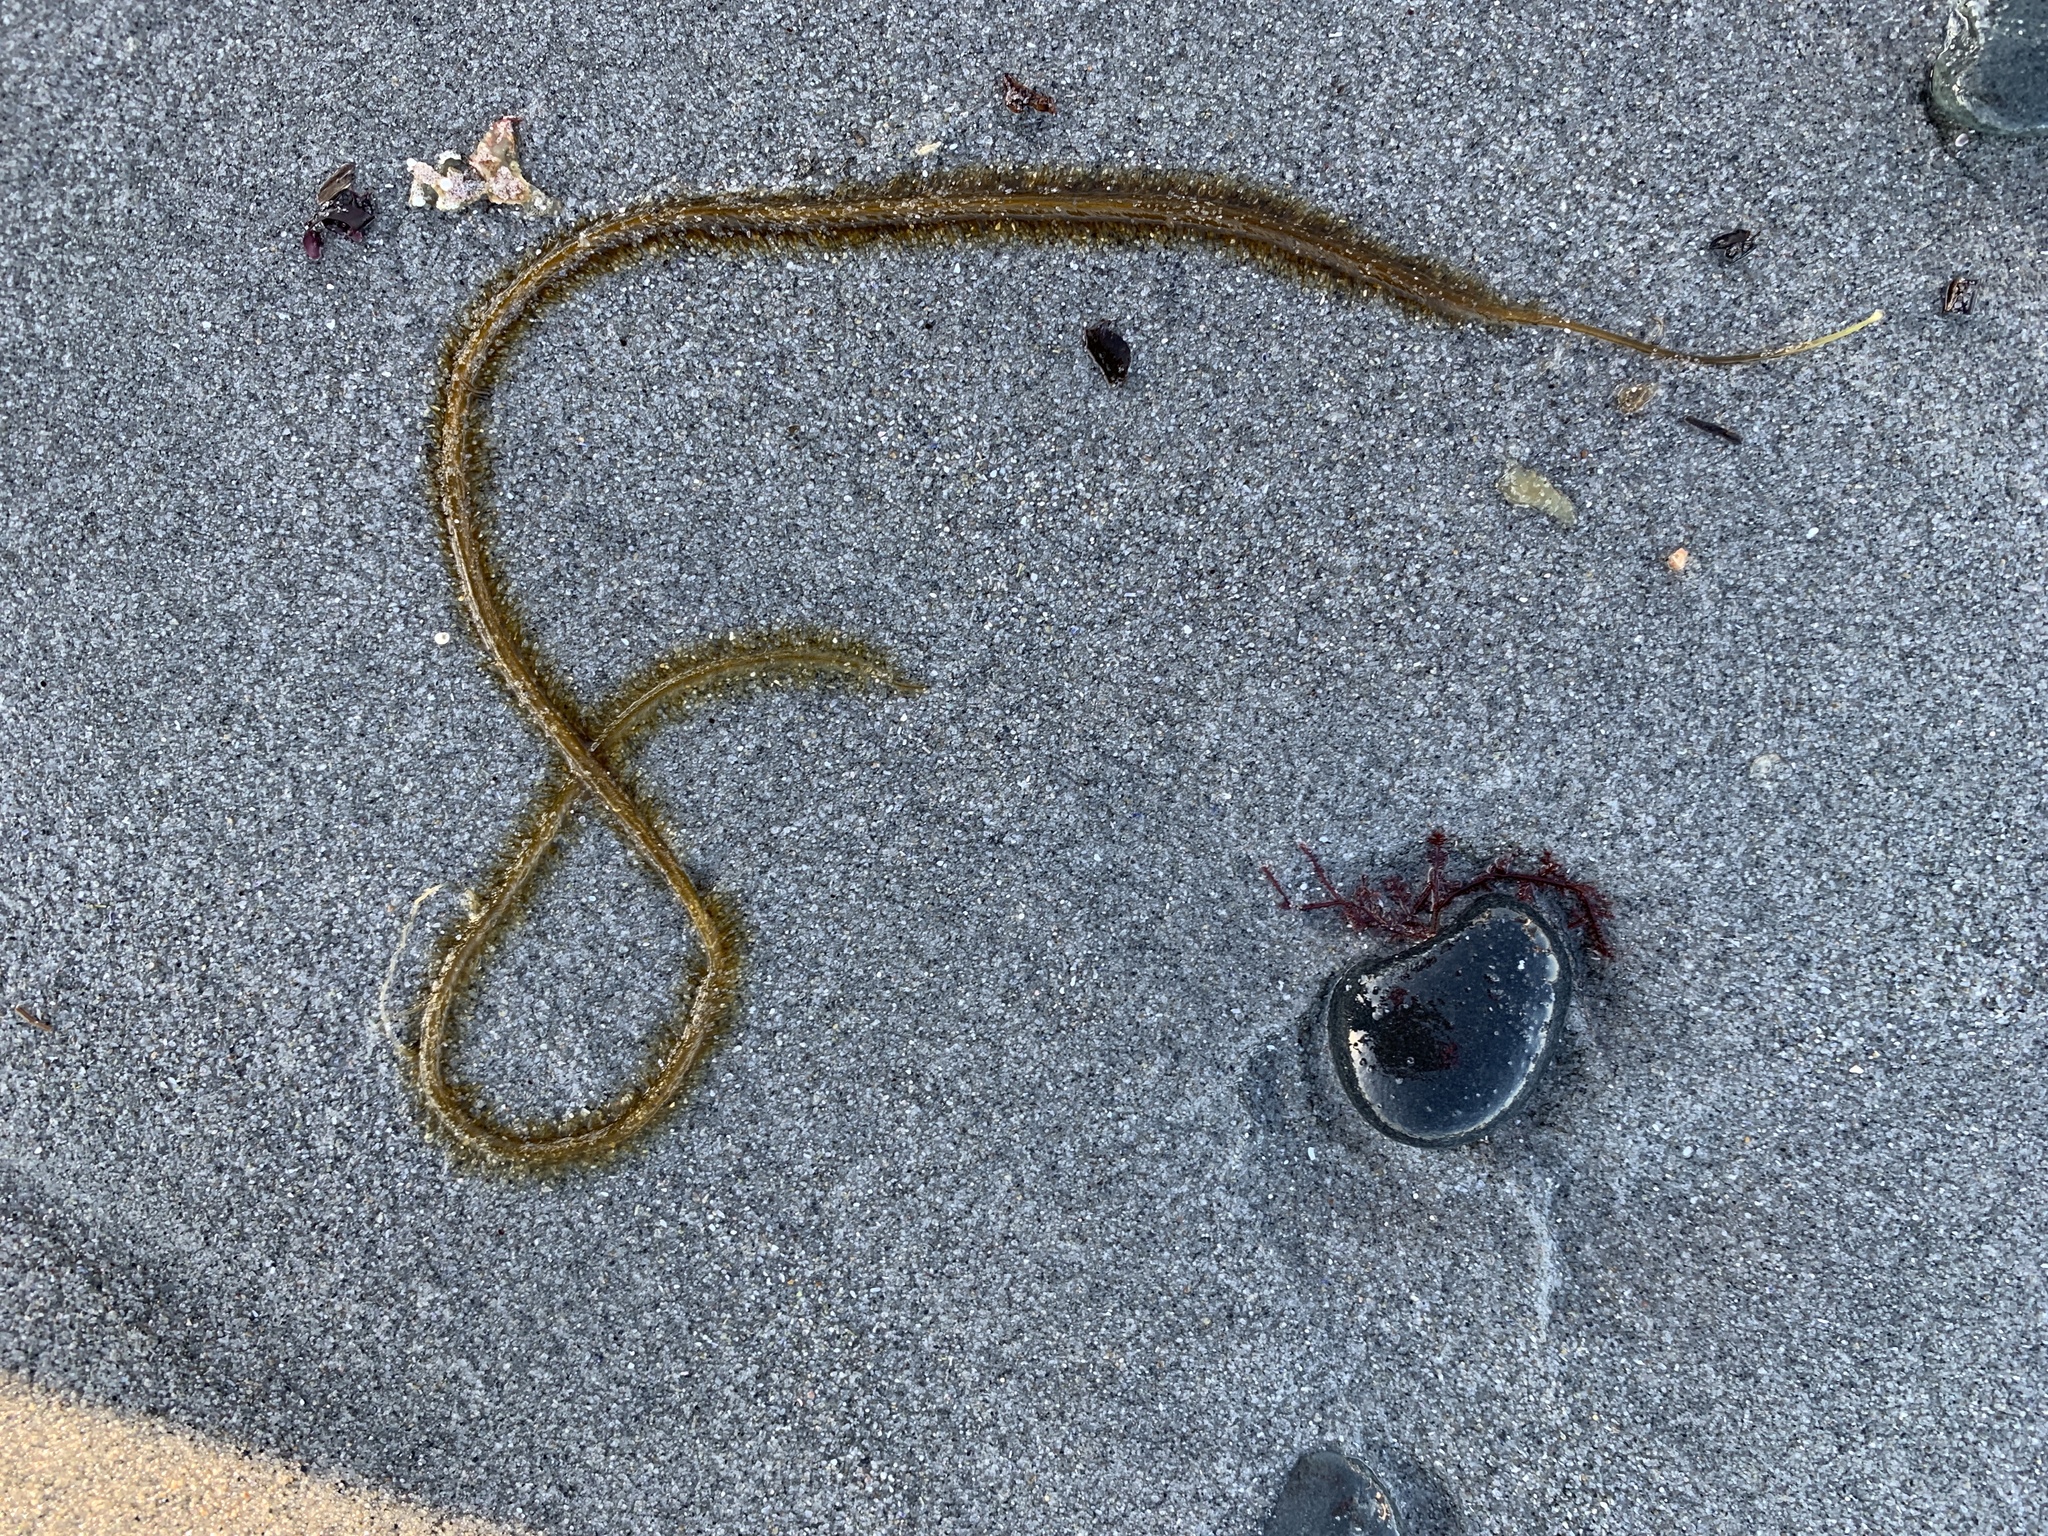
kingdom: Chromista
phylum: Ochrophyta
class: Phaeophyceae
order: Laminariales
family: Chordaceae
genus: Chorda
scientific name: Chorda filum
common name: Mermaid's tresses
